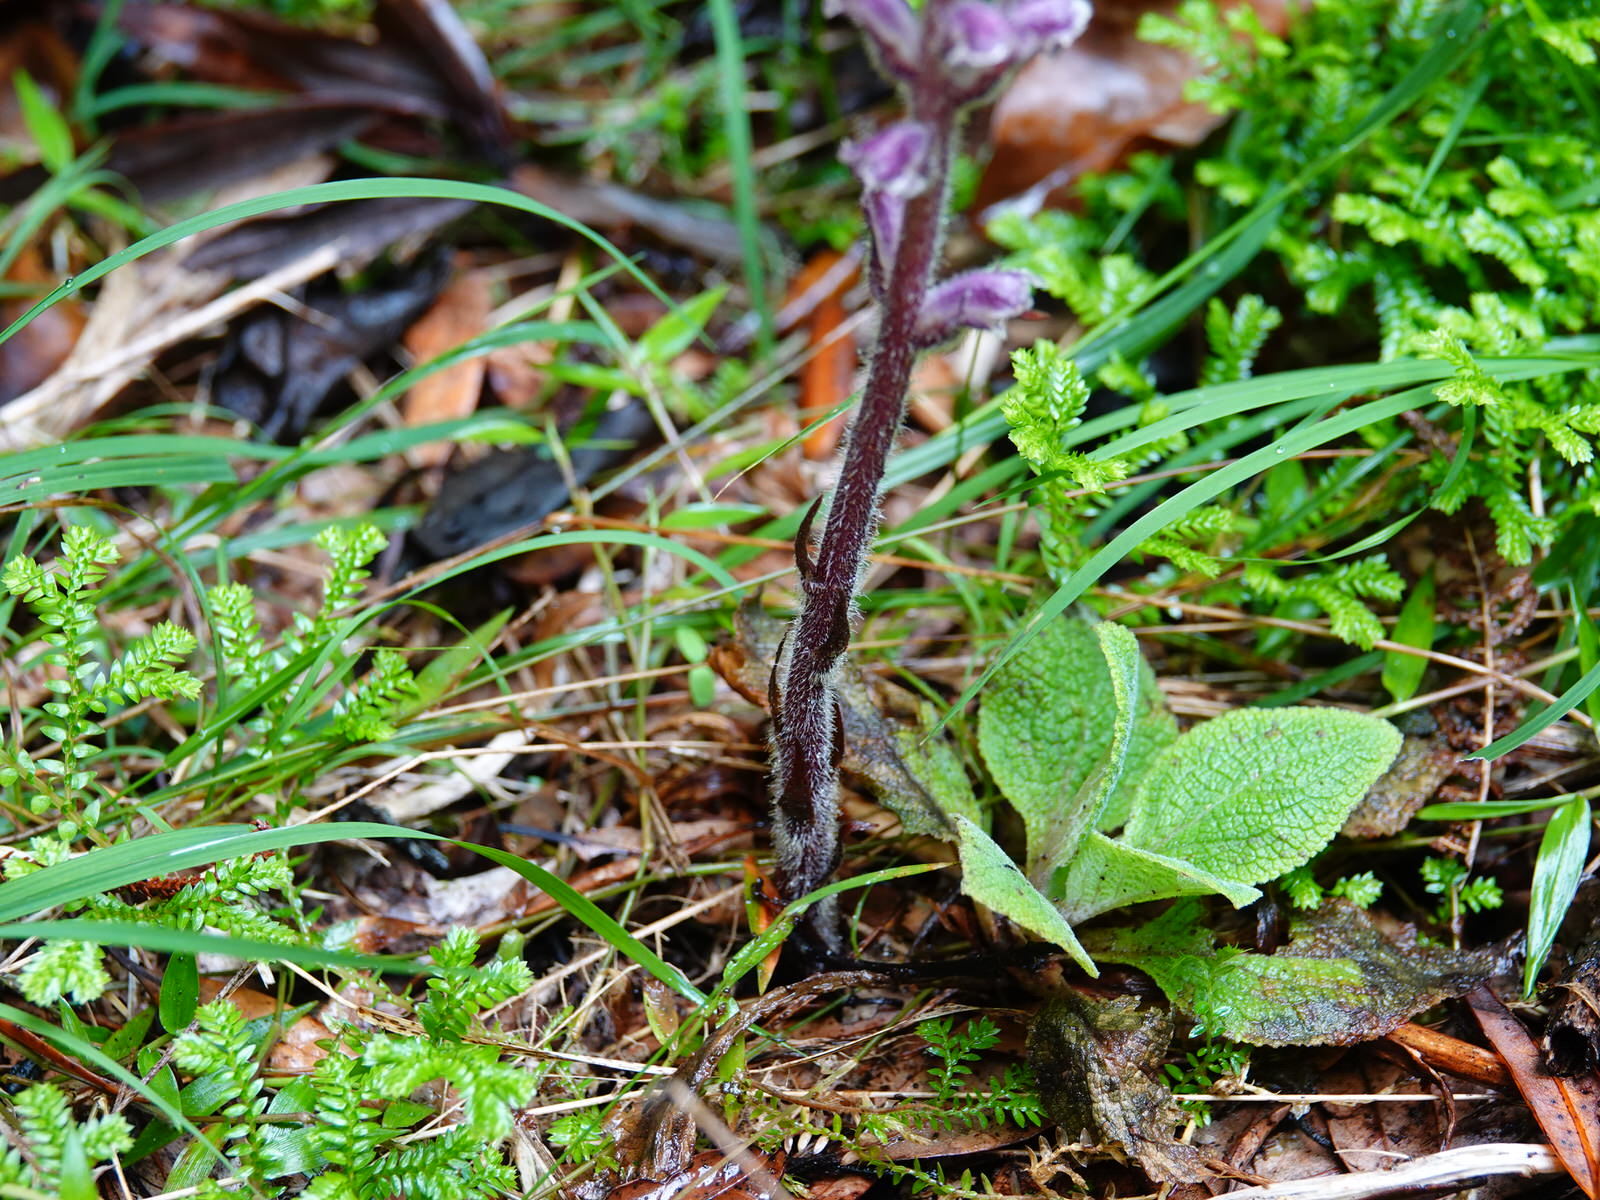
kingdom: Plantae
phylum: Tracheophyta
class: Magnoliopsida
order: Lamiales
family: Orobanchaceae
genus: Orobanche
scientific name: Orobanche minor
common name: Common broomrape
